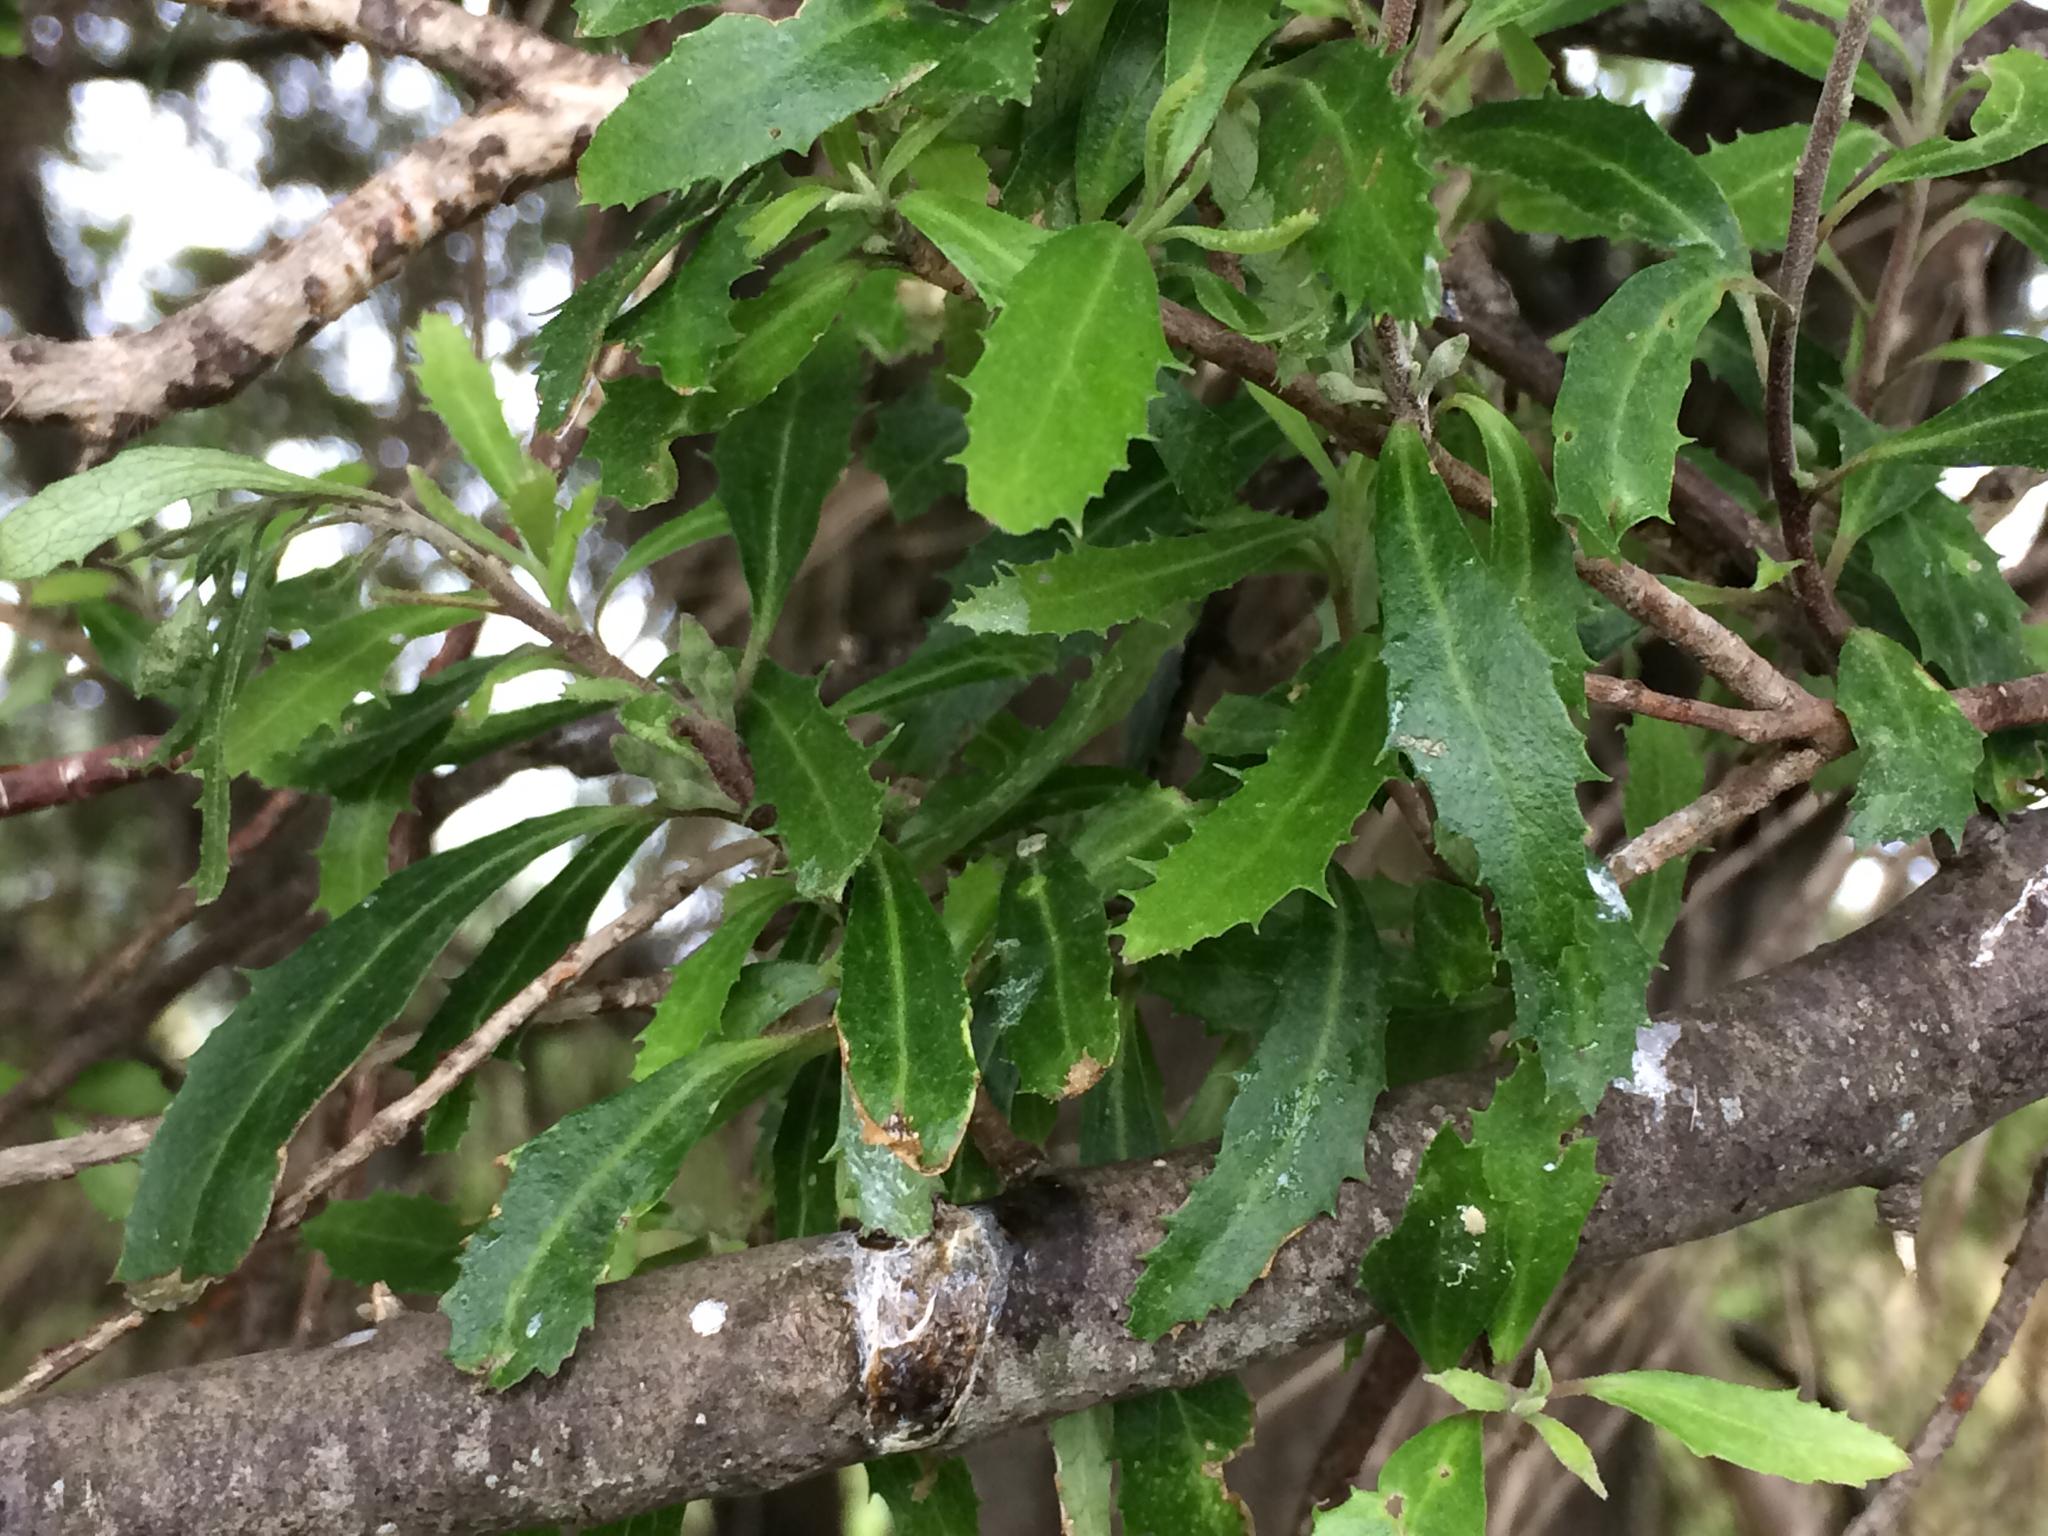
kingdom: Plantae
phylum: Tracheophyta
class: Magnoliopsida
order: Malvales
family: Malvaceae
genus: Hoheria
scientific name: Hoheria angustifolia
